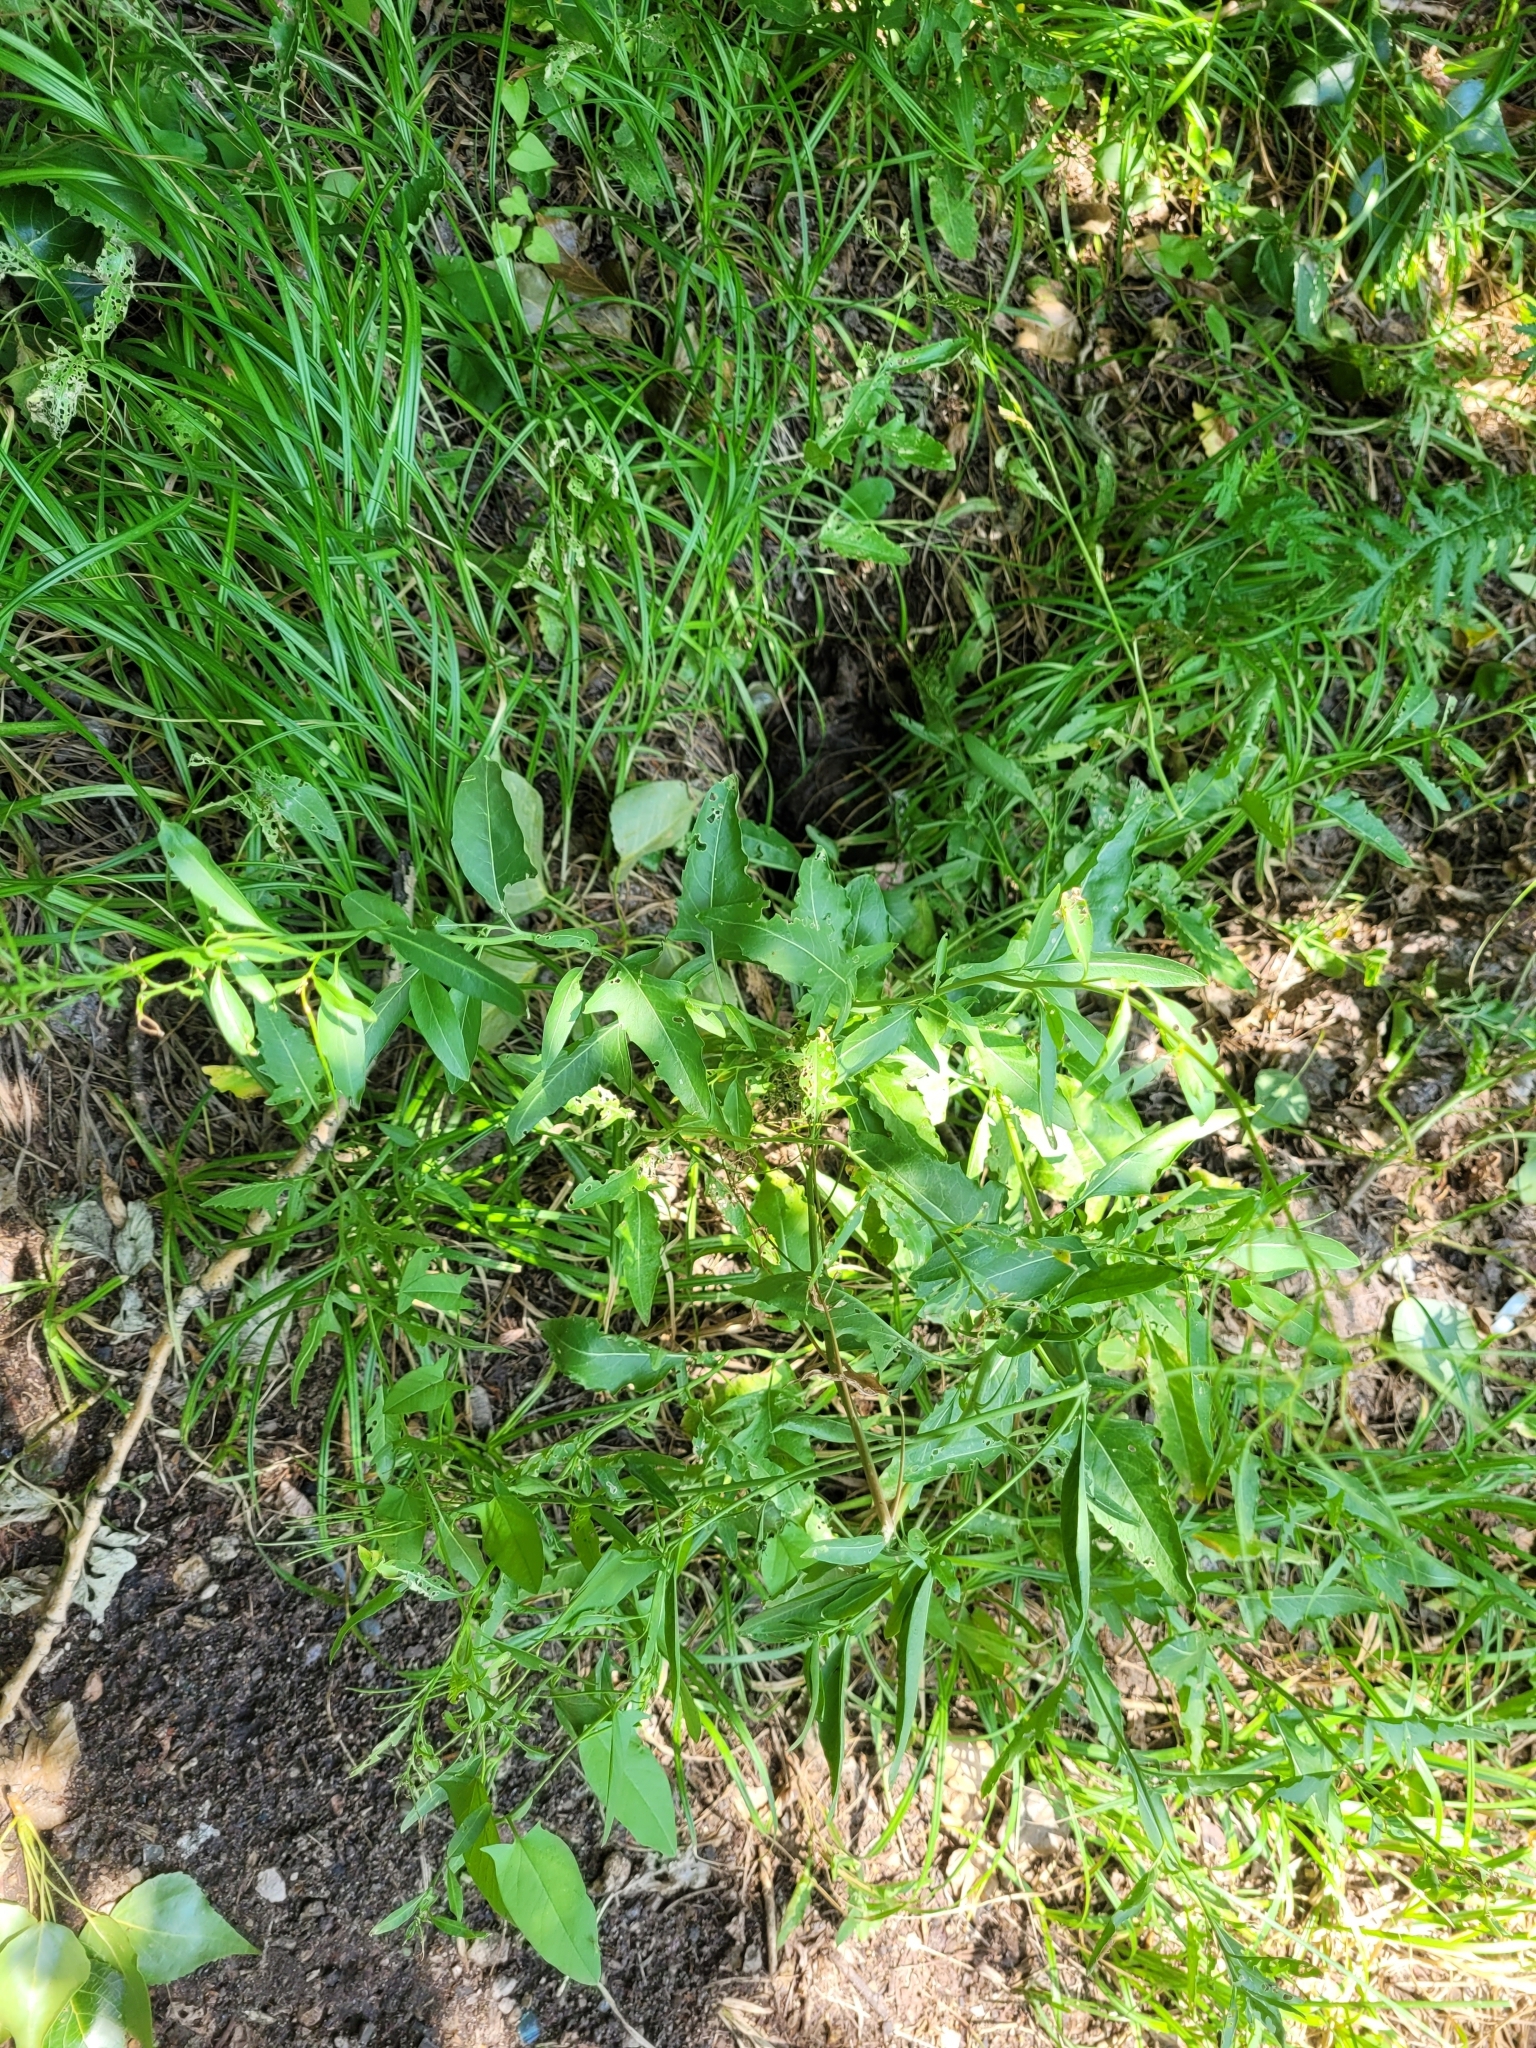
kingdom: Plantae
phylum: Tracheophyta
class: Magnoliopsida
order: Brassicales
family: Brassicaceae
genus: Sisymbrium
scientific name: Sisymbrium volgense
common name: Russian mustard
